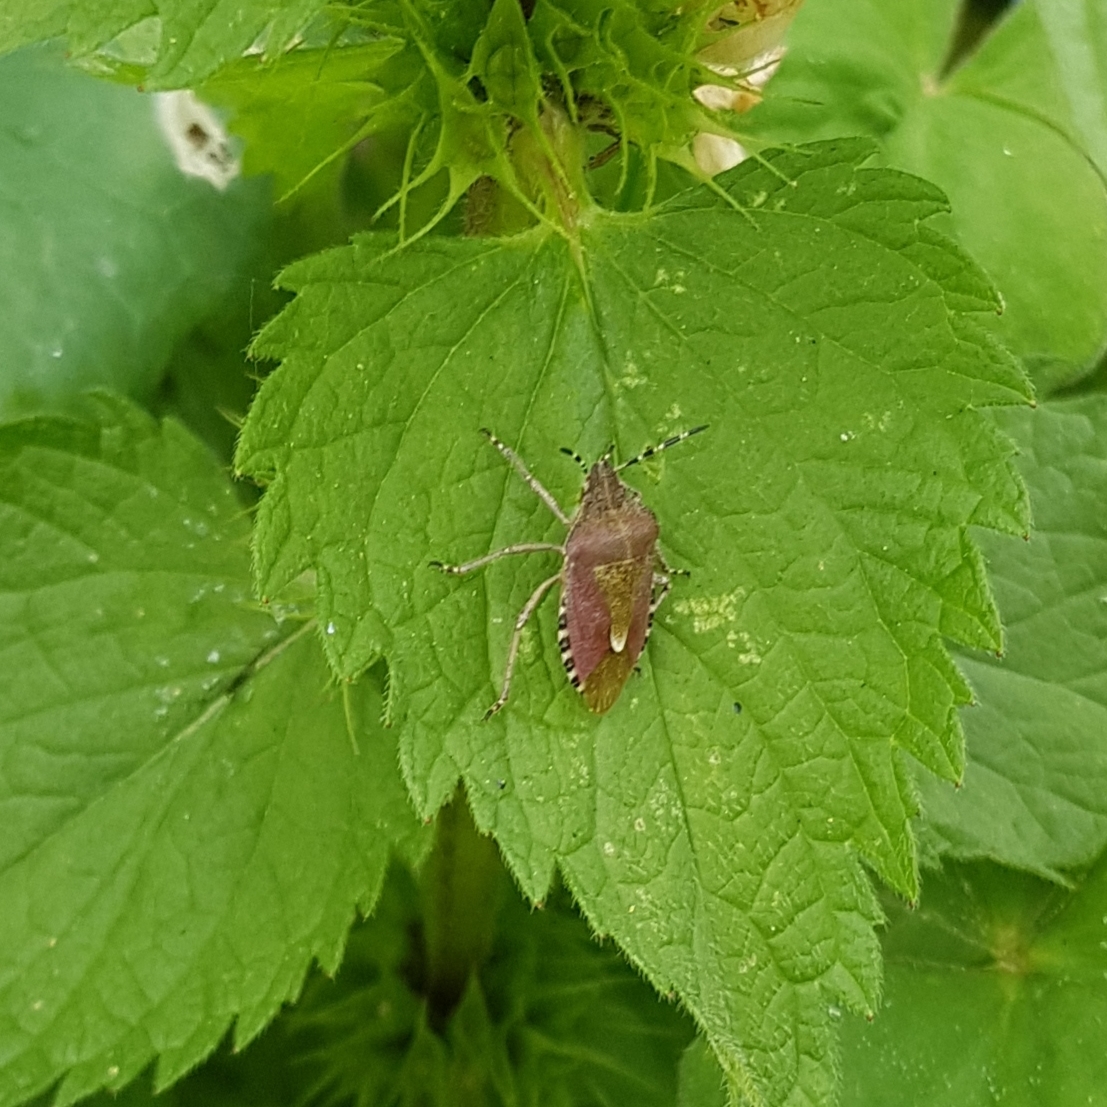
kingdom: Animalia
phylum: Arthropoda
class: Insecta
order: Hemiptera
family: Pentatomidae
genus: Dolycoris
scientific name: Dolycoris baccarum
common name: Sloe bug
